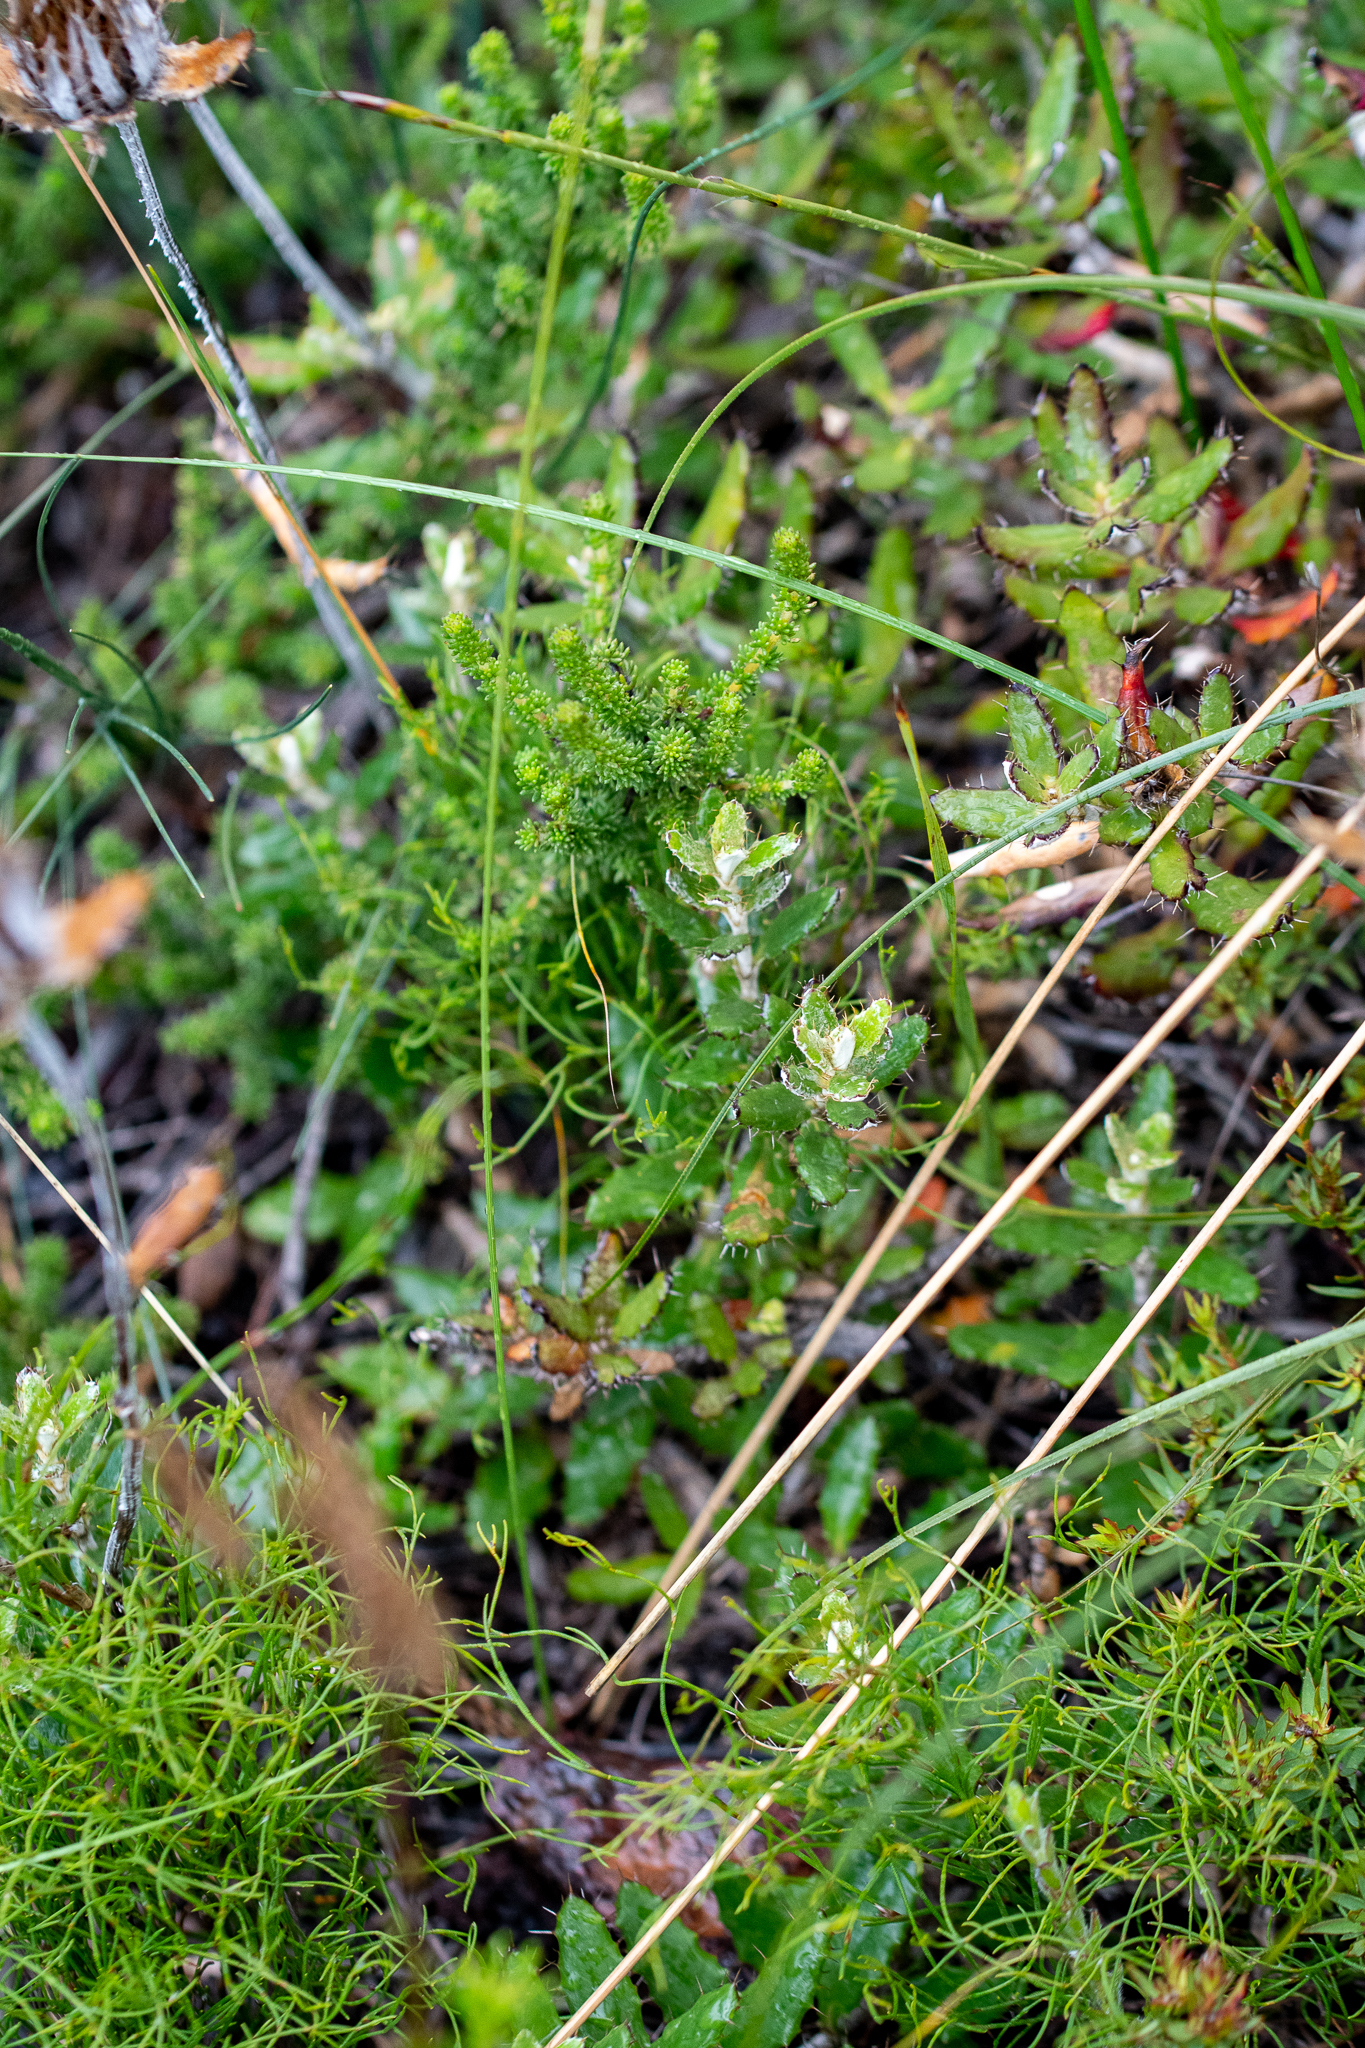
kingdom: Plantae
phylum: Tracheophyta
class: Magnoliopsida
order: Asterales
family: Asteraceae
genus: Berkheya
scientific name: Berkheya barbata
